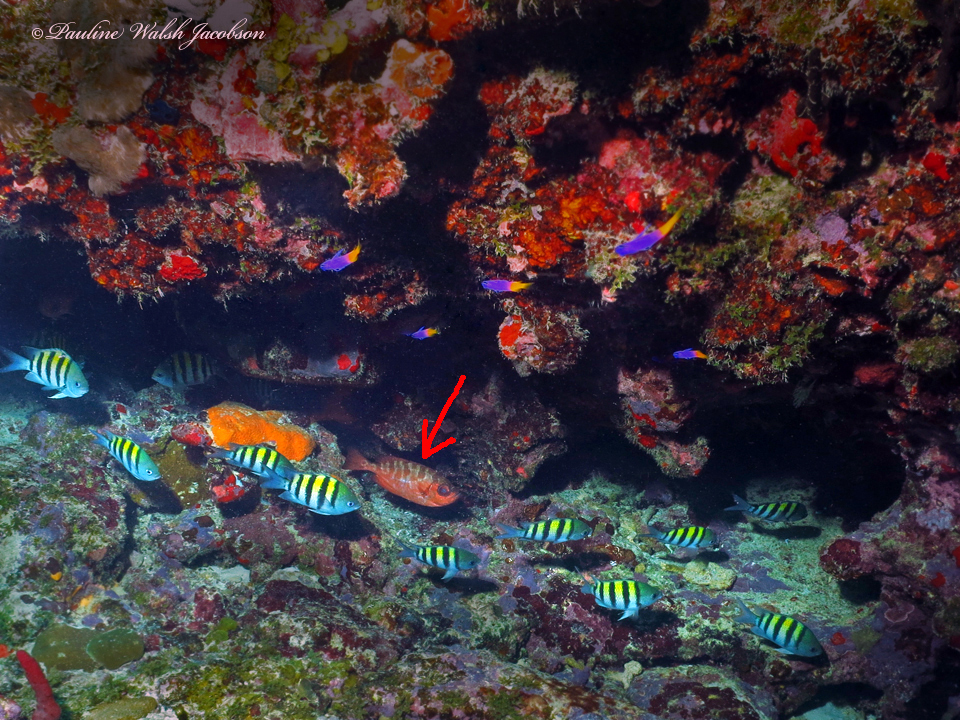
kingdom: Animalia
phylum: Chordata
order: Perciformes
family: Priacanthidae
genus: Heteropriacanthus
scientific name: Heteropriacanthus cruentatus
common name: Glasseye
